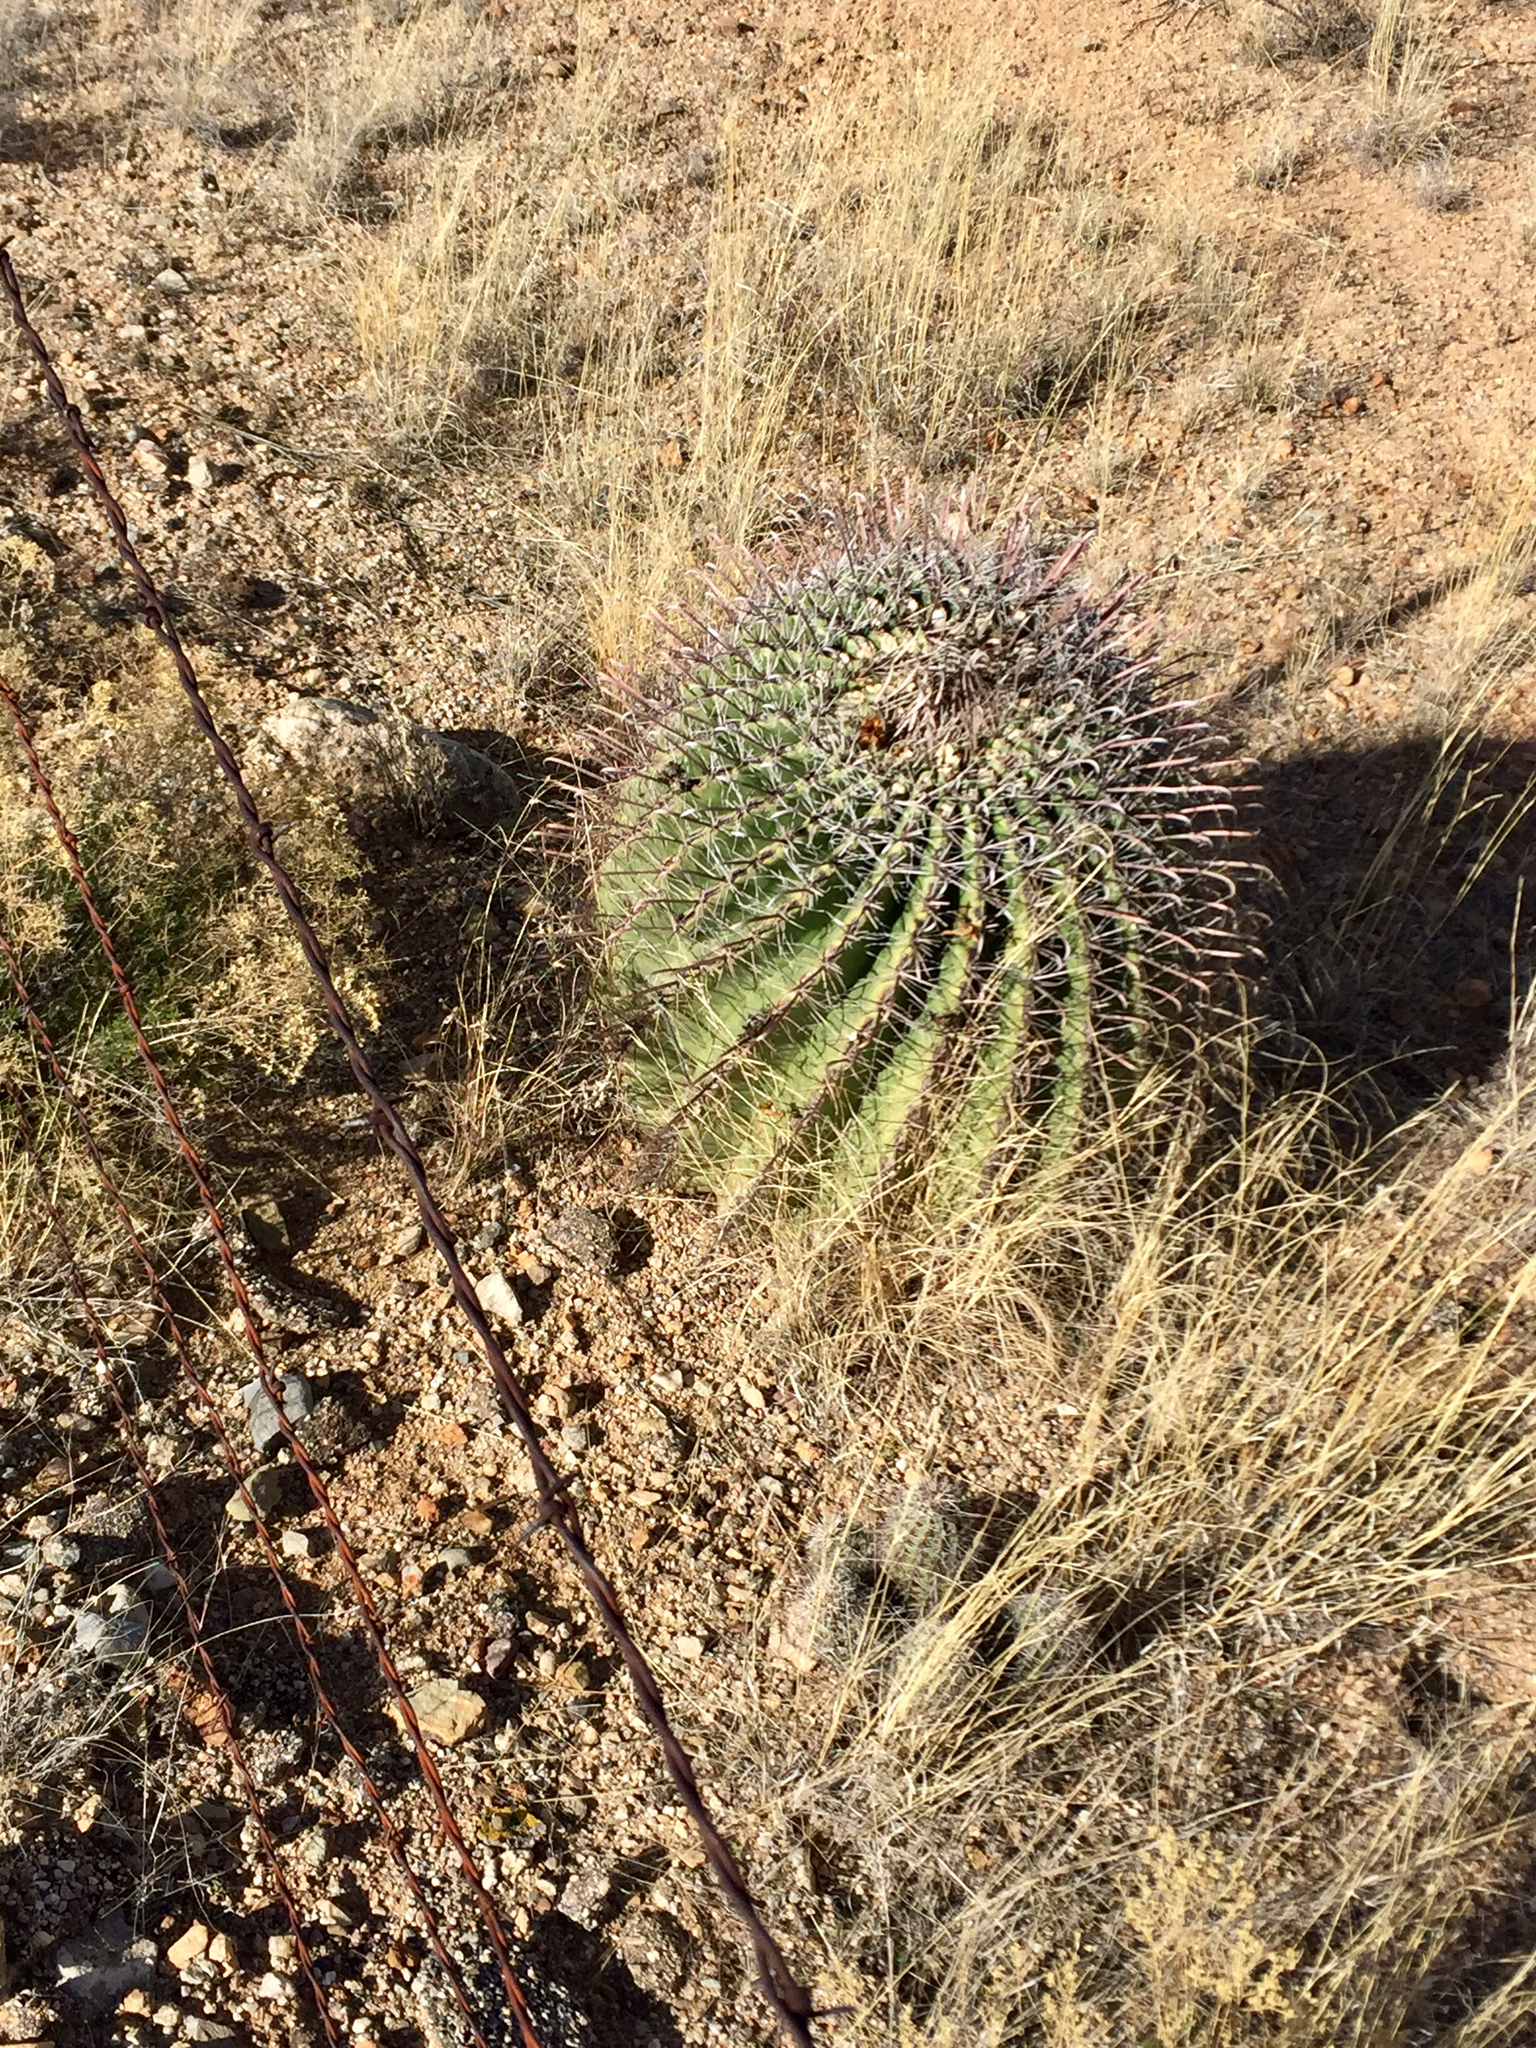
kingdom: Plantae
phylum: Tracheophyta
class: Magnoliopsida
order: Caryophyllales
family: Cactaceae
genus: Ferocactus
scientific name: Ferocactus wislizeni
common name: Candy barrel cactus
